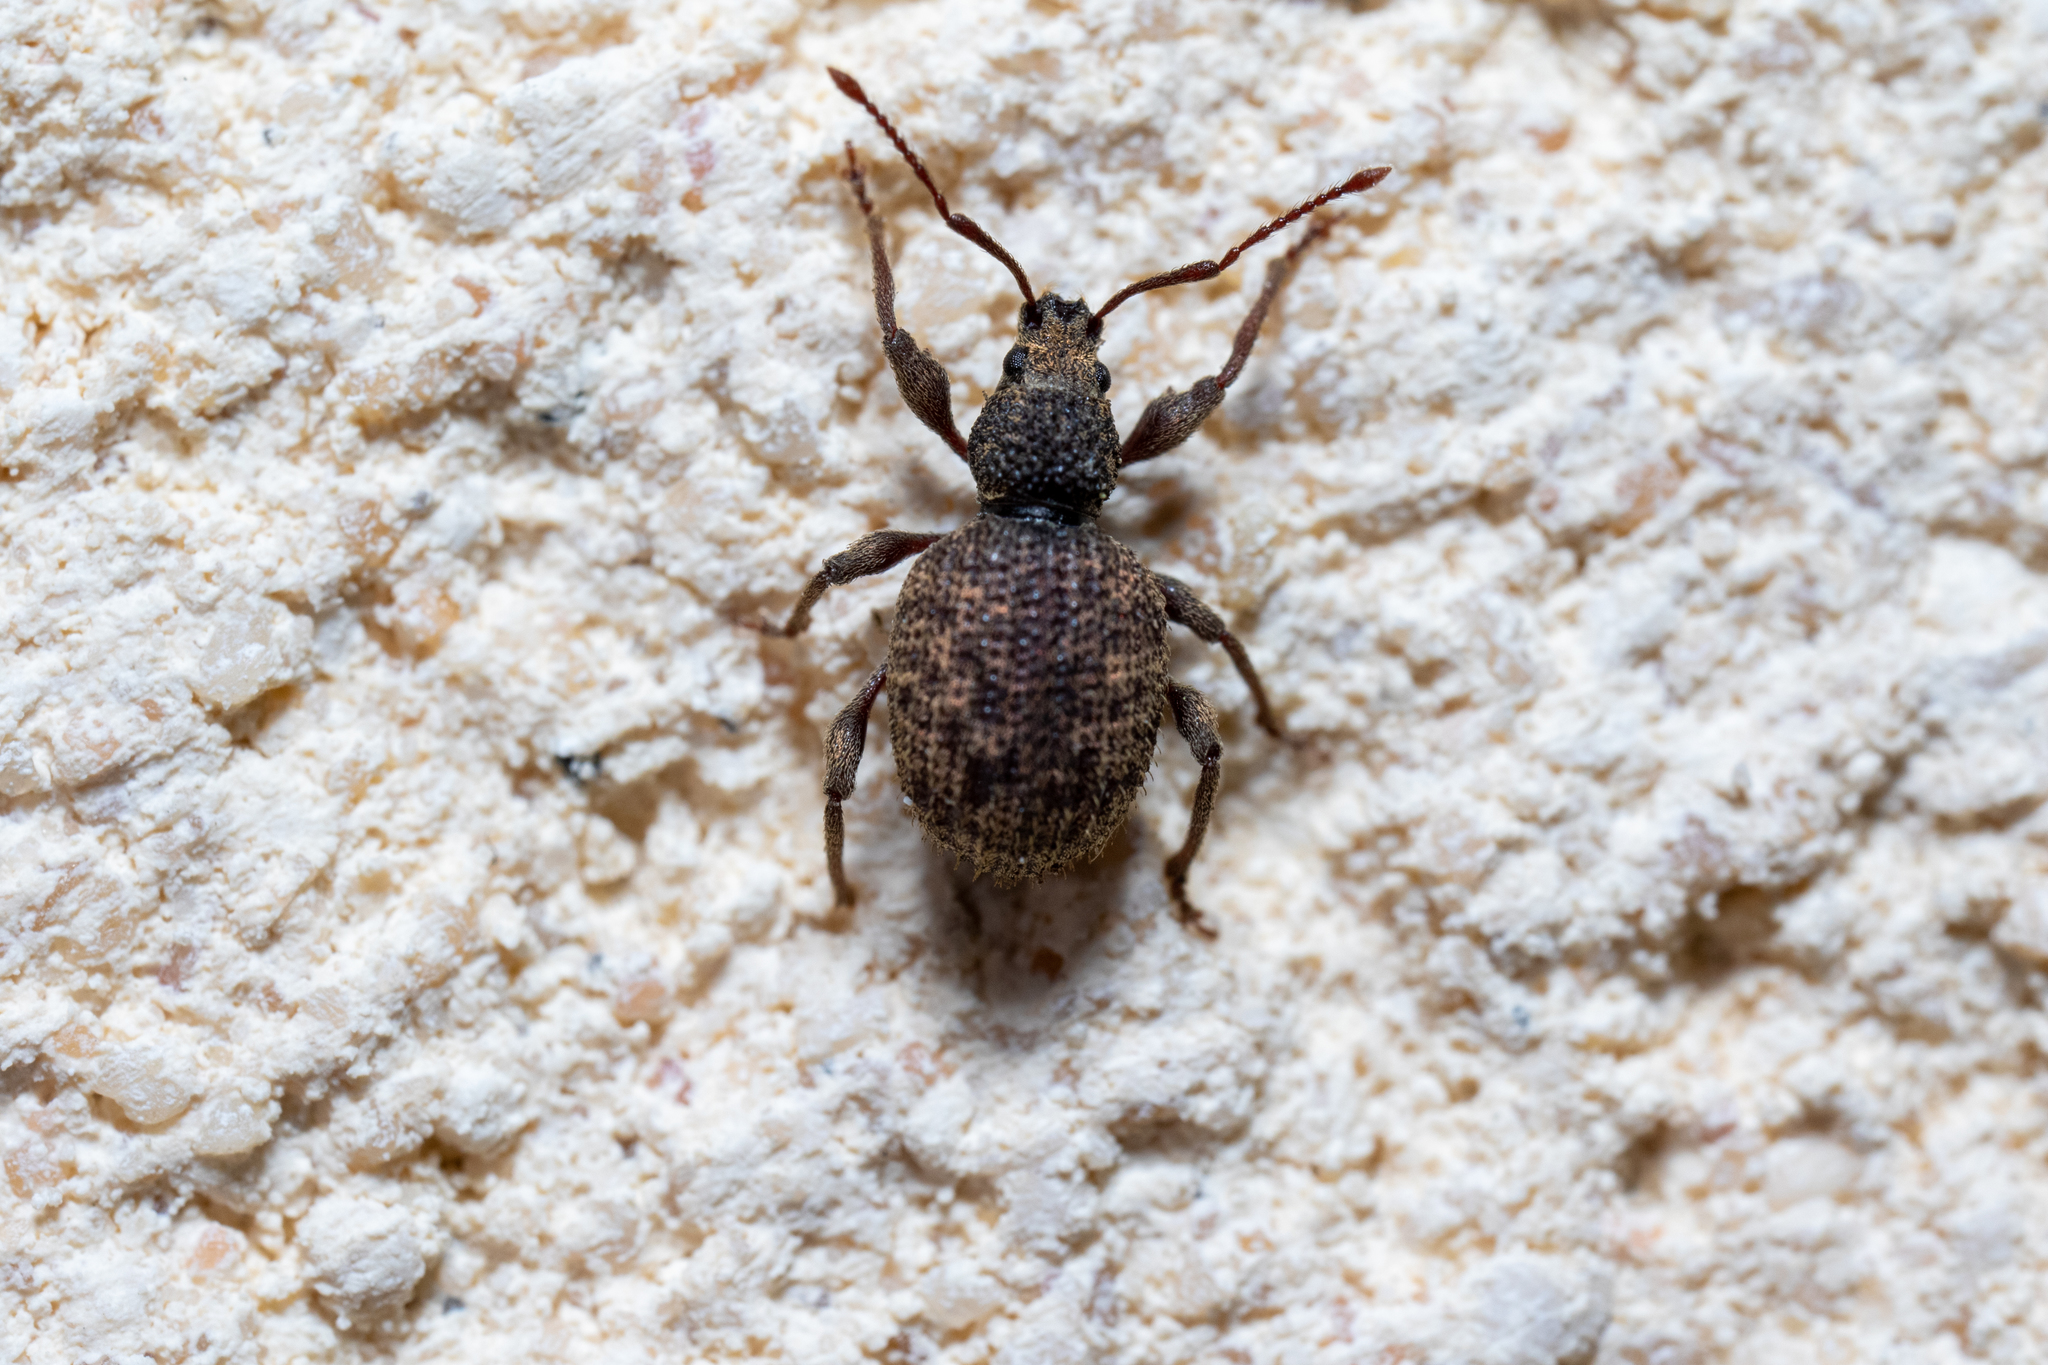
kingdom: Animalia
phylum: Arthropoda
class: Insecta
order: Coleoptera
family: Curculionidae
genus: Otiorhynchus
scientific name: Otiorhynchus crataegi
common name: Privet weevil
